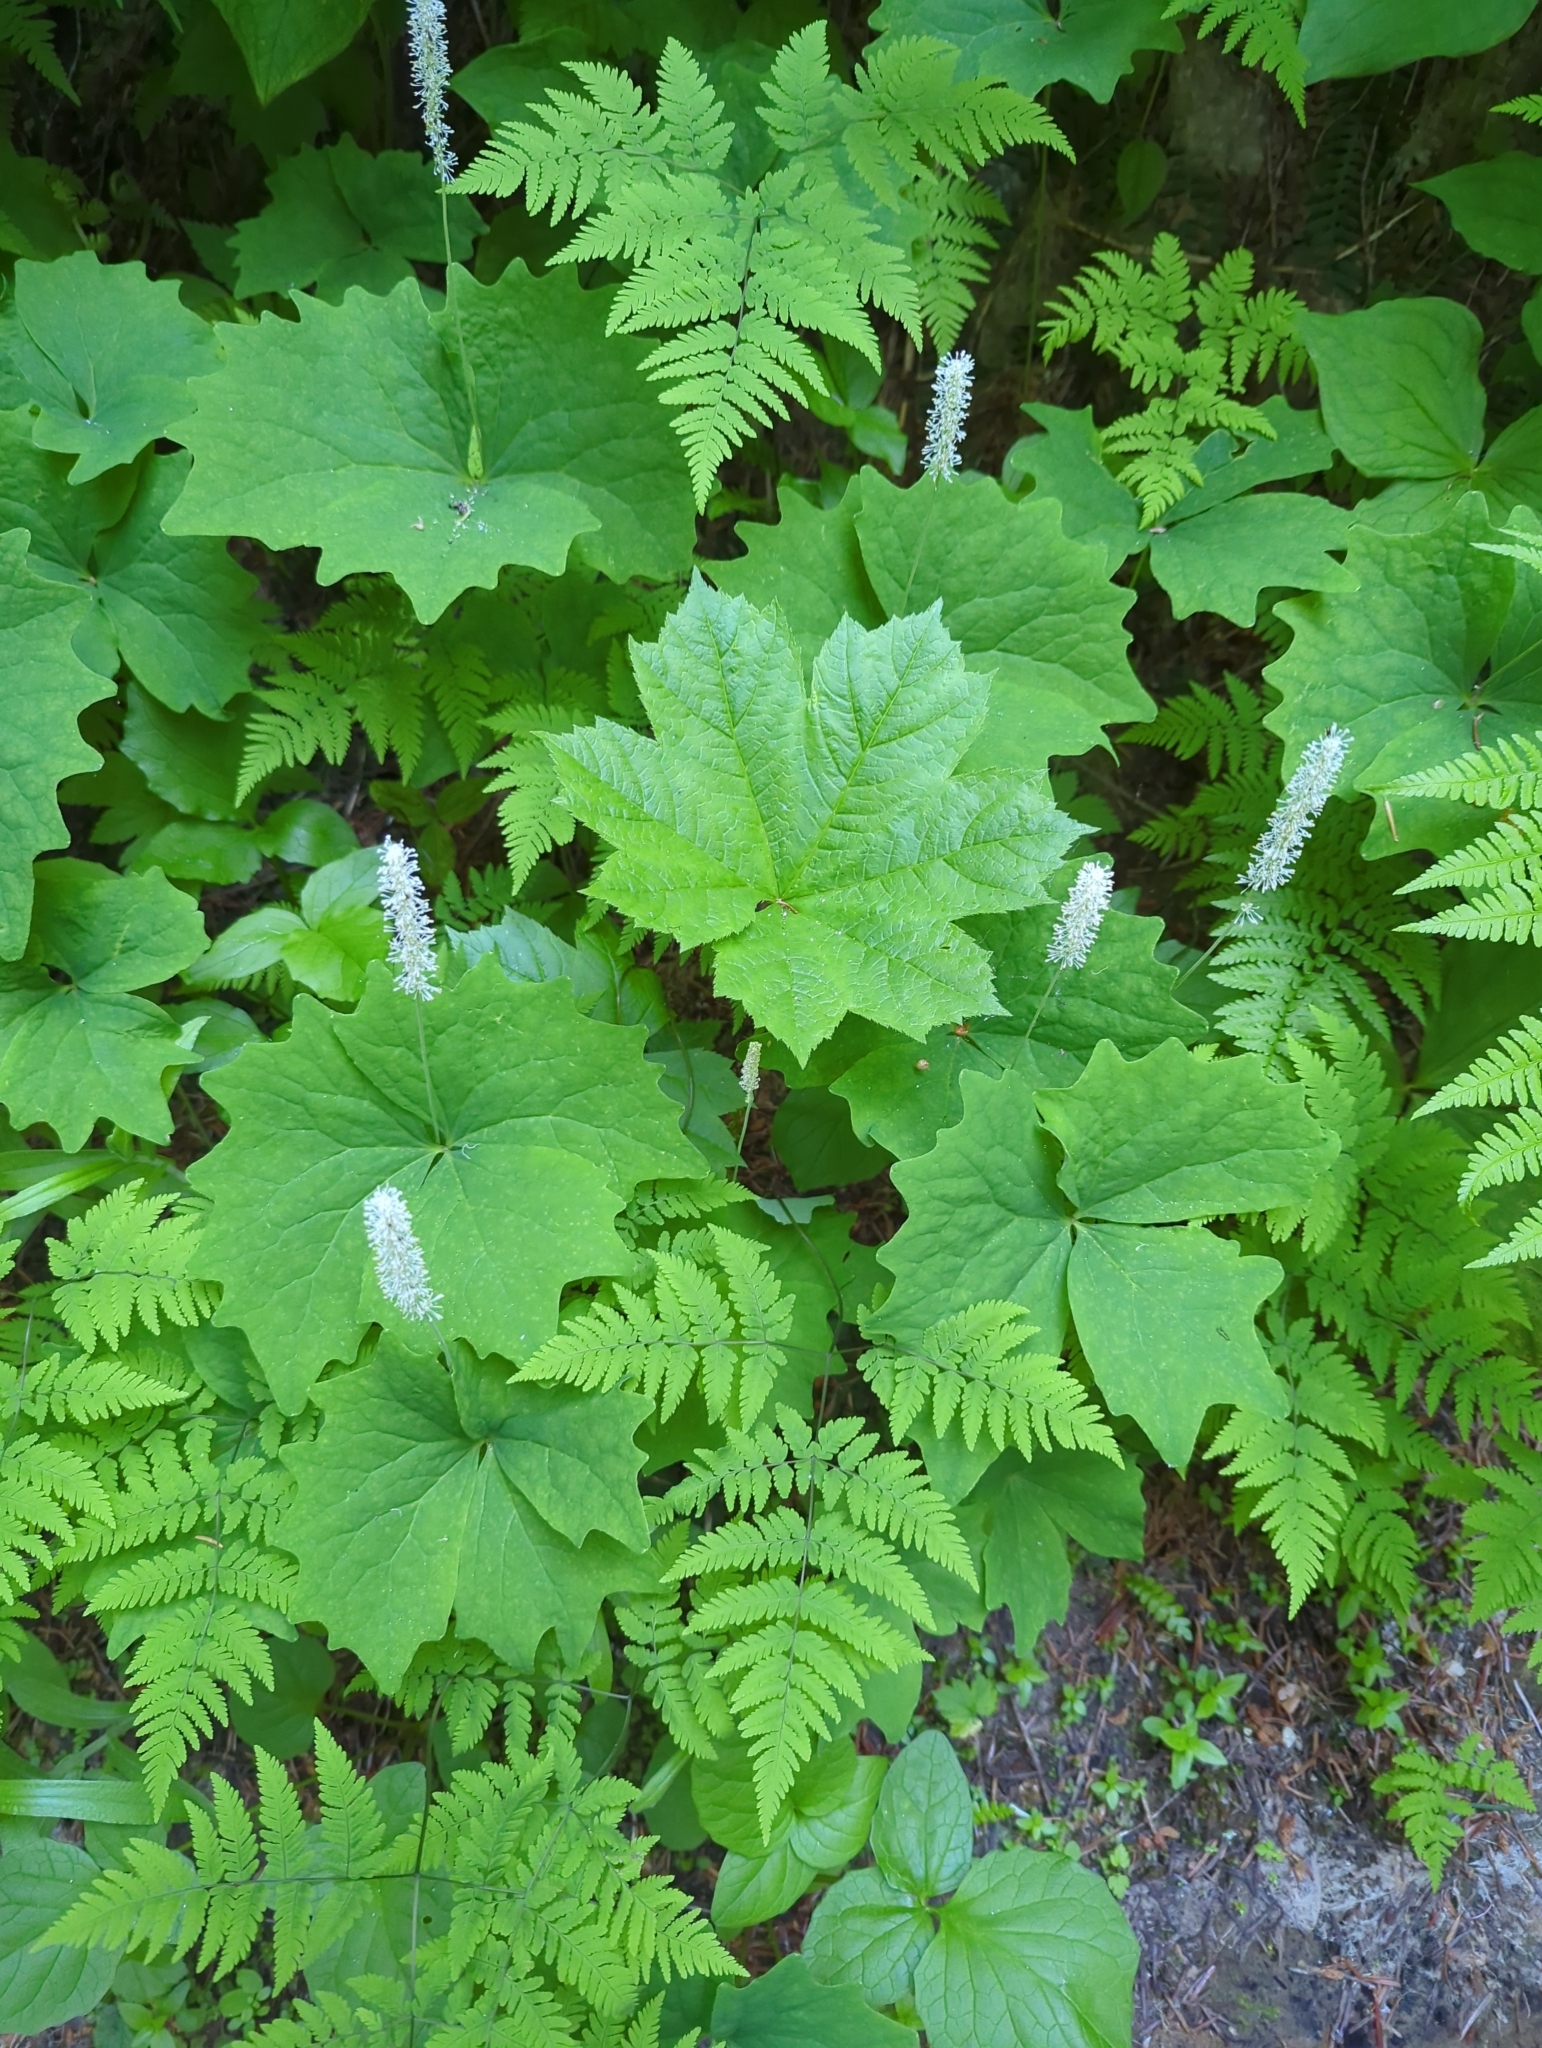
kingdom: Plantae
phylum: Tracheophyta
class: Magnoliopsida
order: Ranunculales
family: Berberidaceae
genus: Achlys
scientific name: Achlys triphylla
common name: Vanilla-leaf
